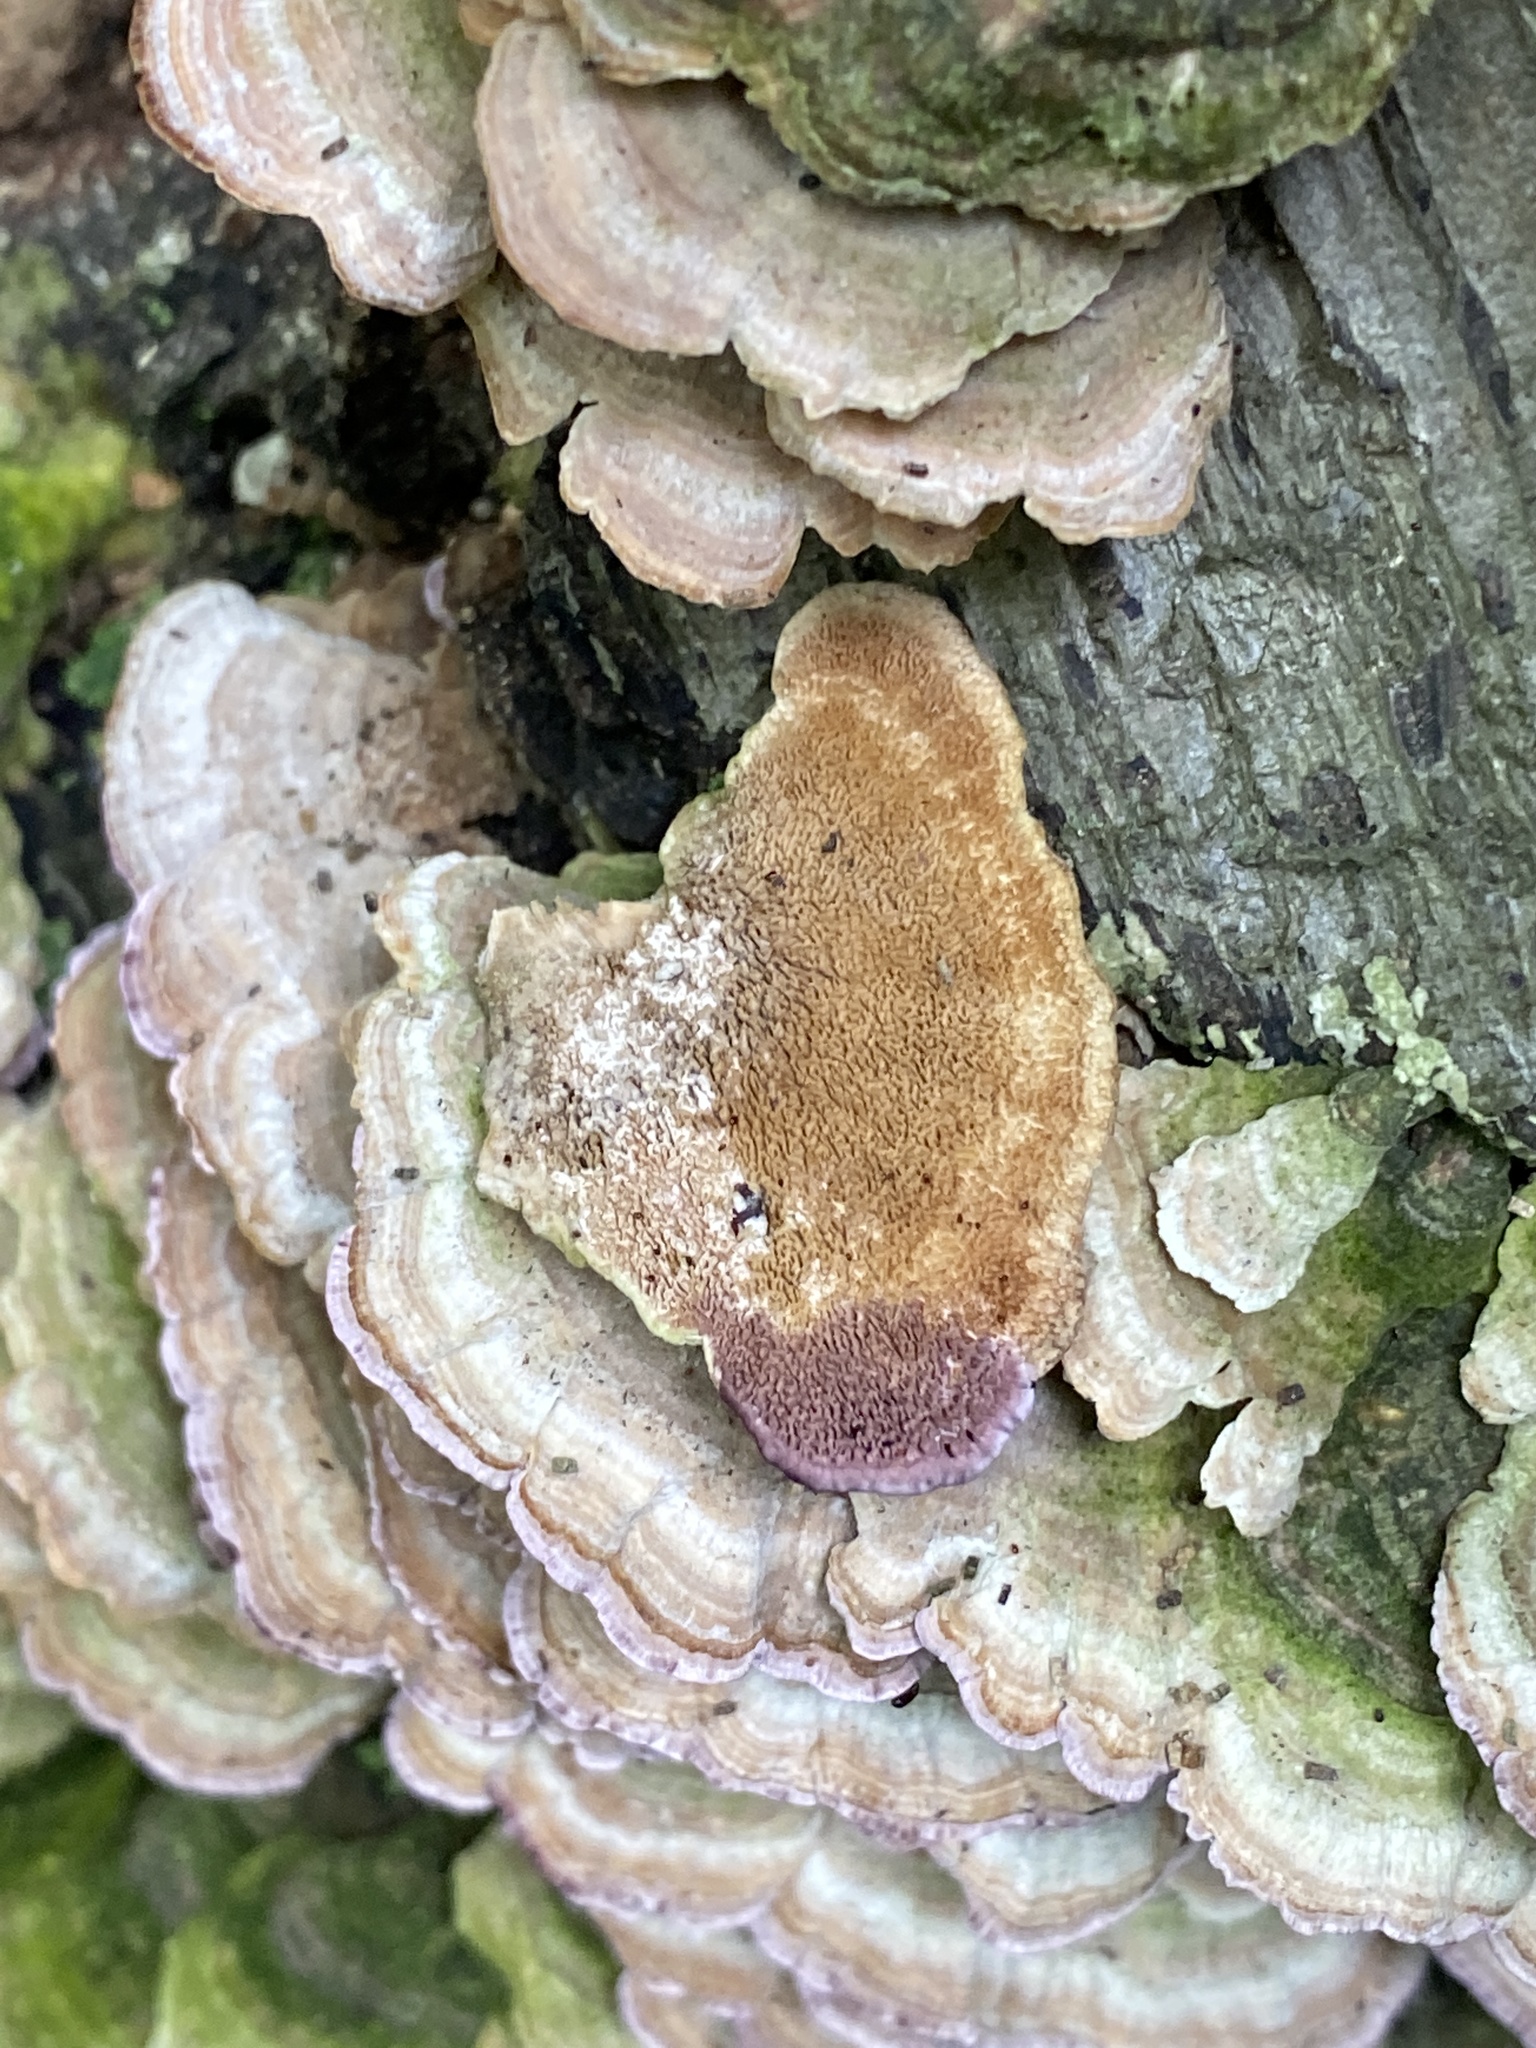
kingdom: Fungi
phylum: Basidiomycota
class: Agaricomycetes
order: Hymenochaetales
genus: Trichaptum
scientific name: Trichaptum biforme
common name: Violet-toothed polypore
